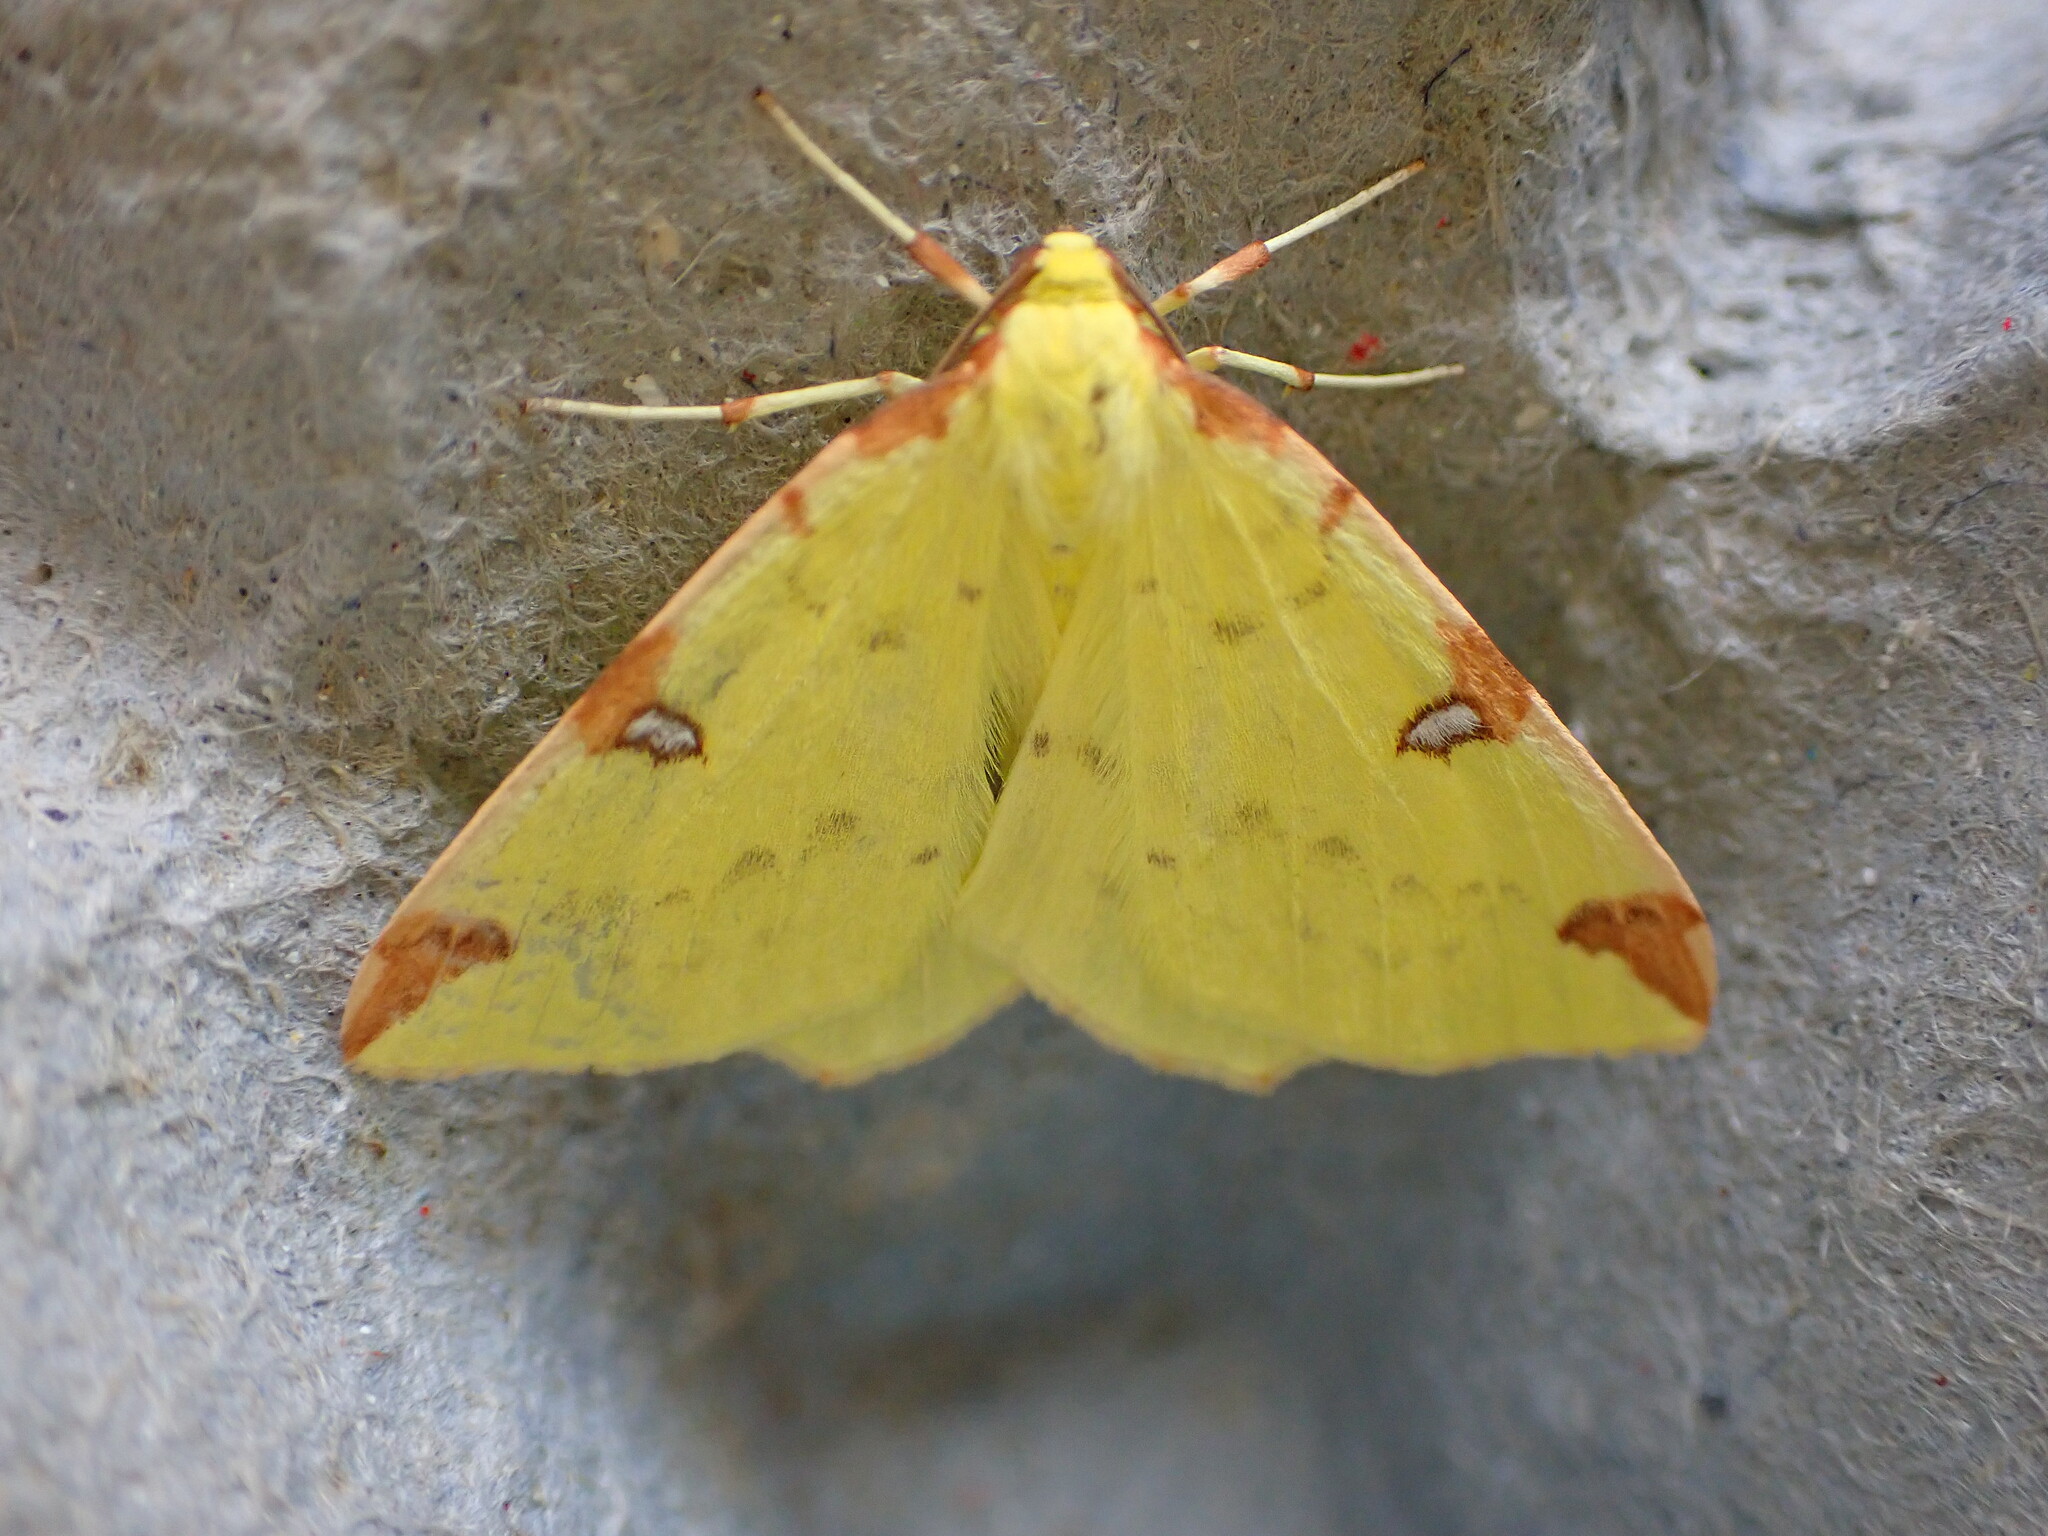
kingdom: Animalia
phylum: Arthropoda
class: Insecta
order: Lepidoptera
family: Geometridae
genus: Opisthograptis
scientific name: Opisthograptis luteolata
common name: Brimstone moth
